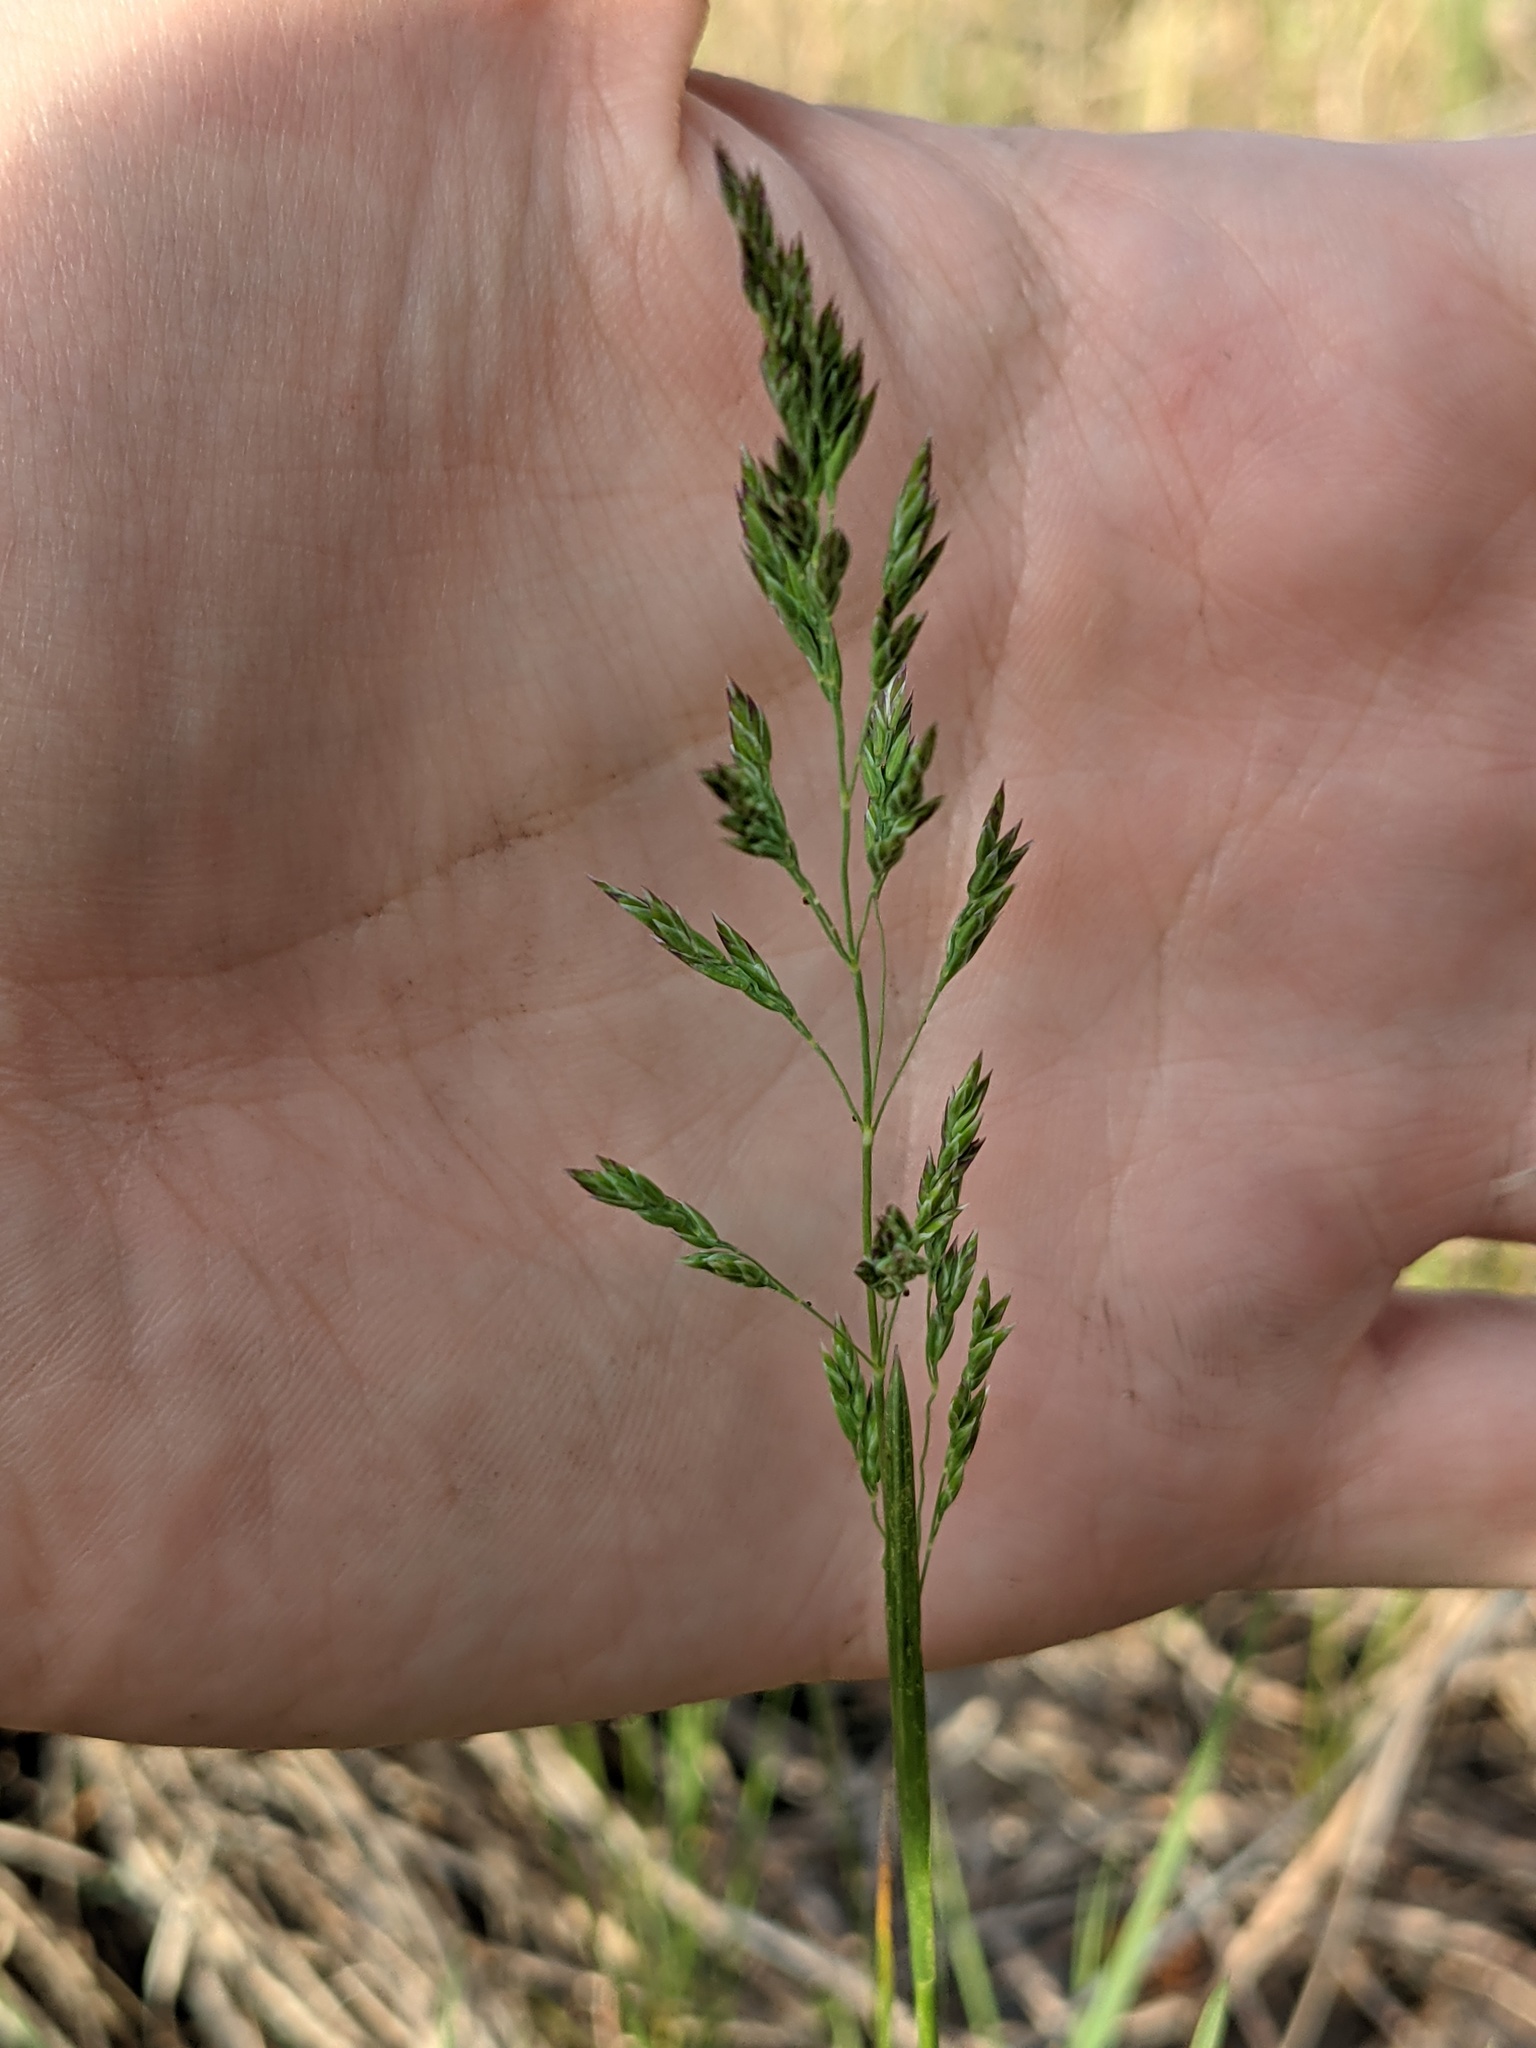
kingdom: Plantae
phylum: Tracheophyta
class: Liliopsida
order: Poales
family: Poaceae
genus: Poa
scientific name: Poa pratensis
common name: Kentucky bluegrass
